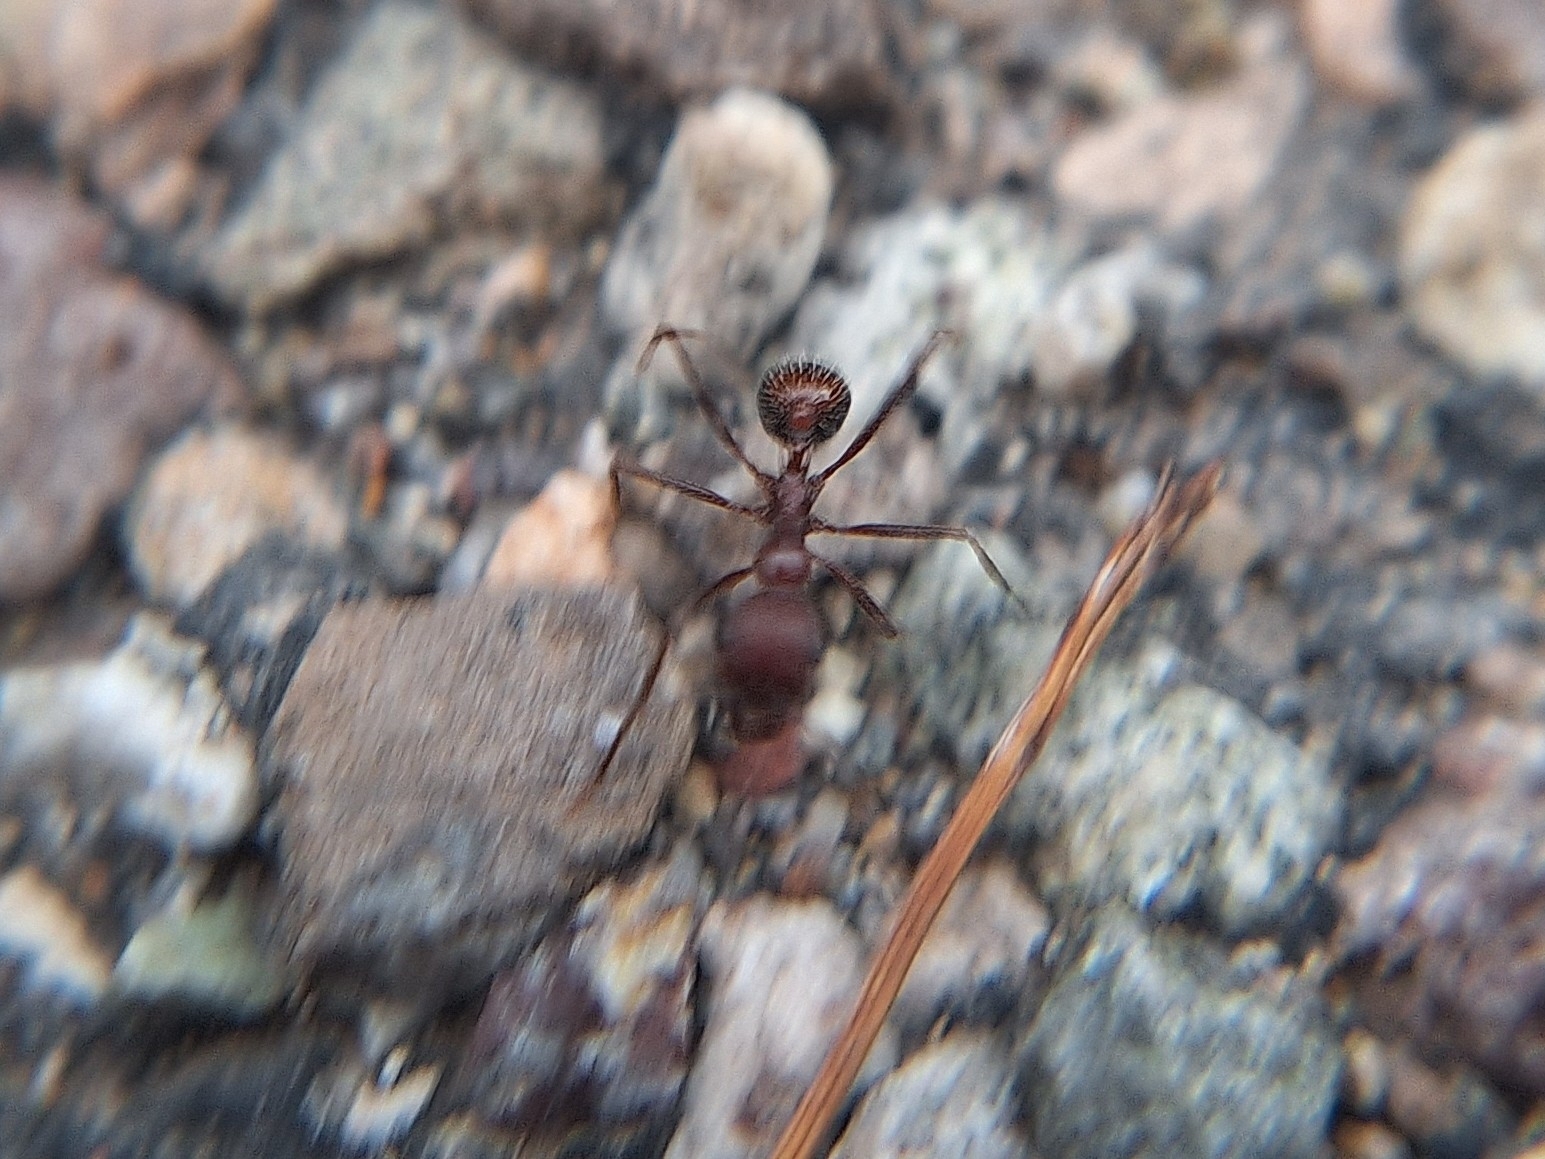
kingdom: Animalia
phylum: Arthropoda
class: Insecta
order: Hymenoptera
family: Formicidae
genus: Novomessor
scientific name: Novomessor albisetosa
